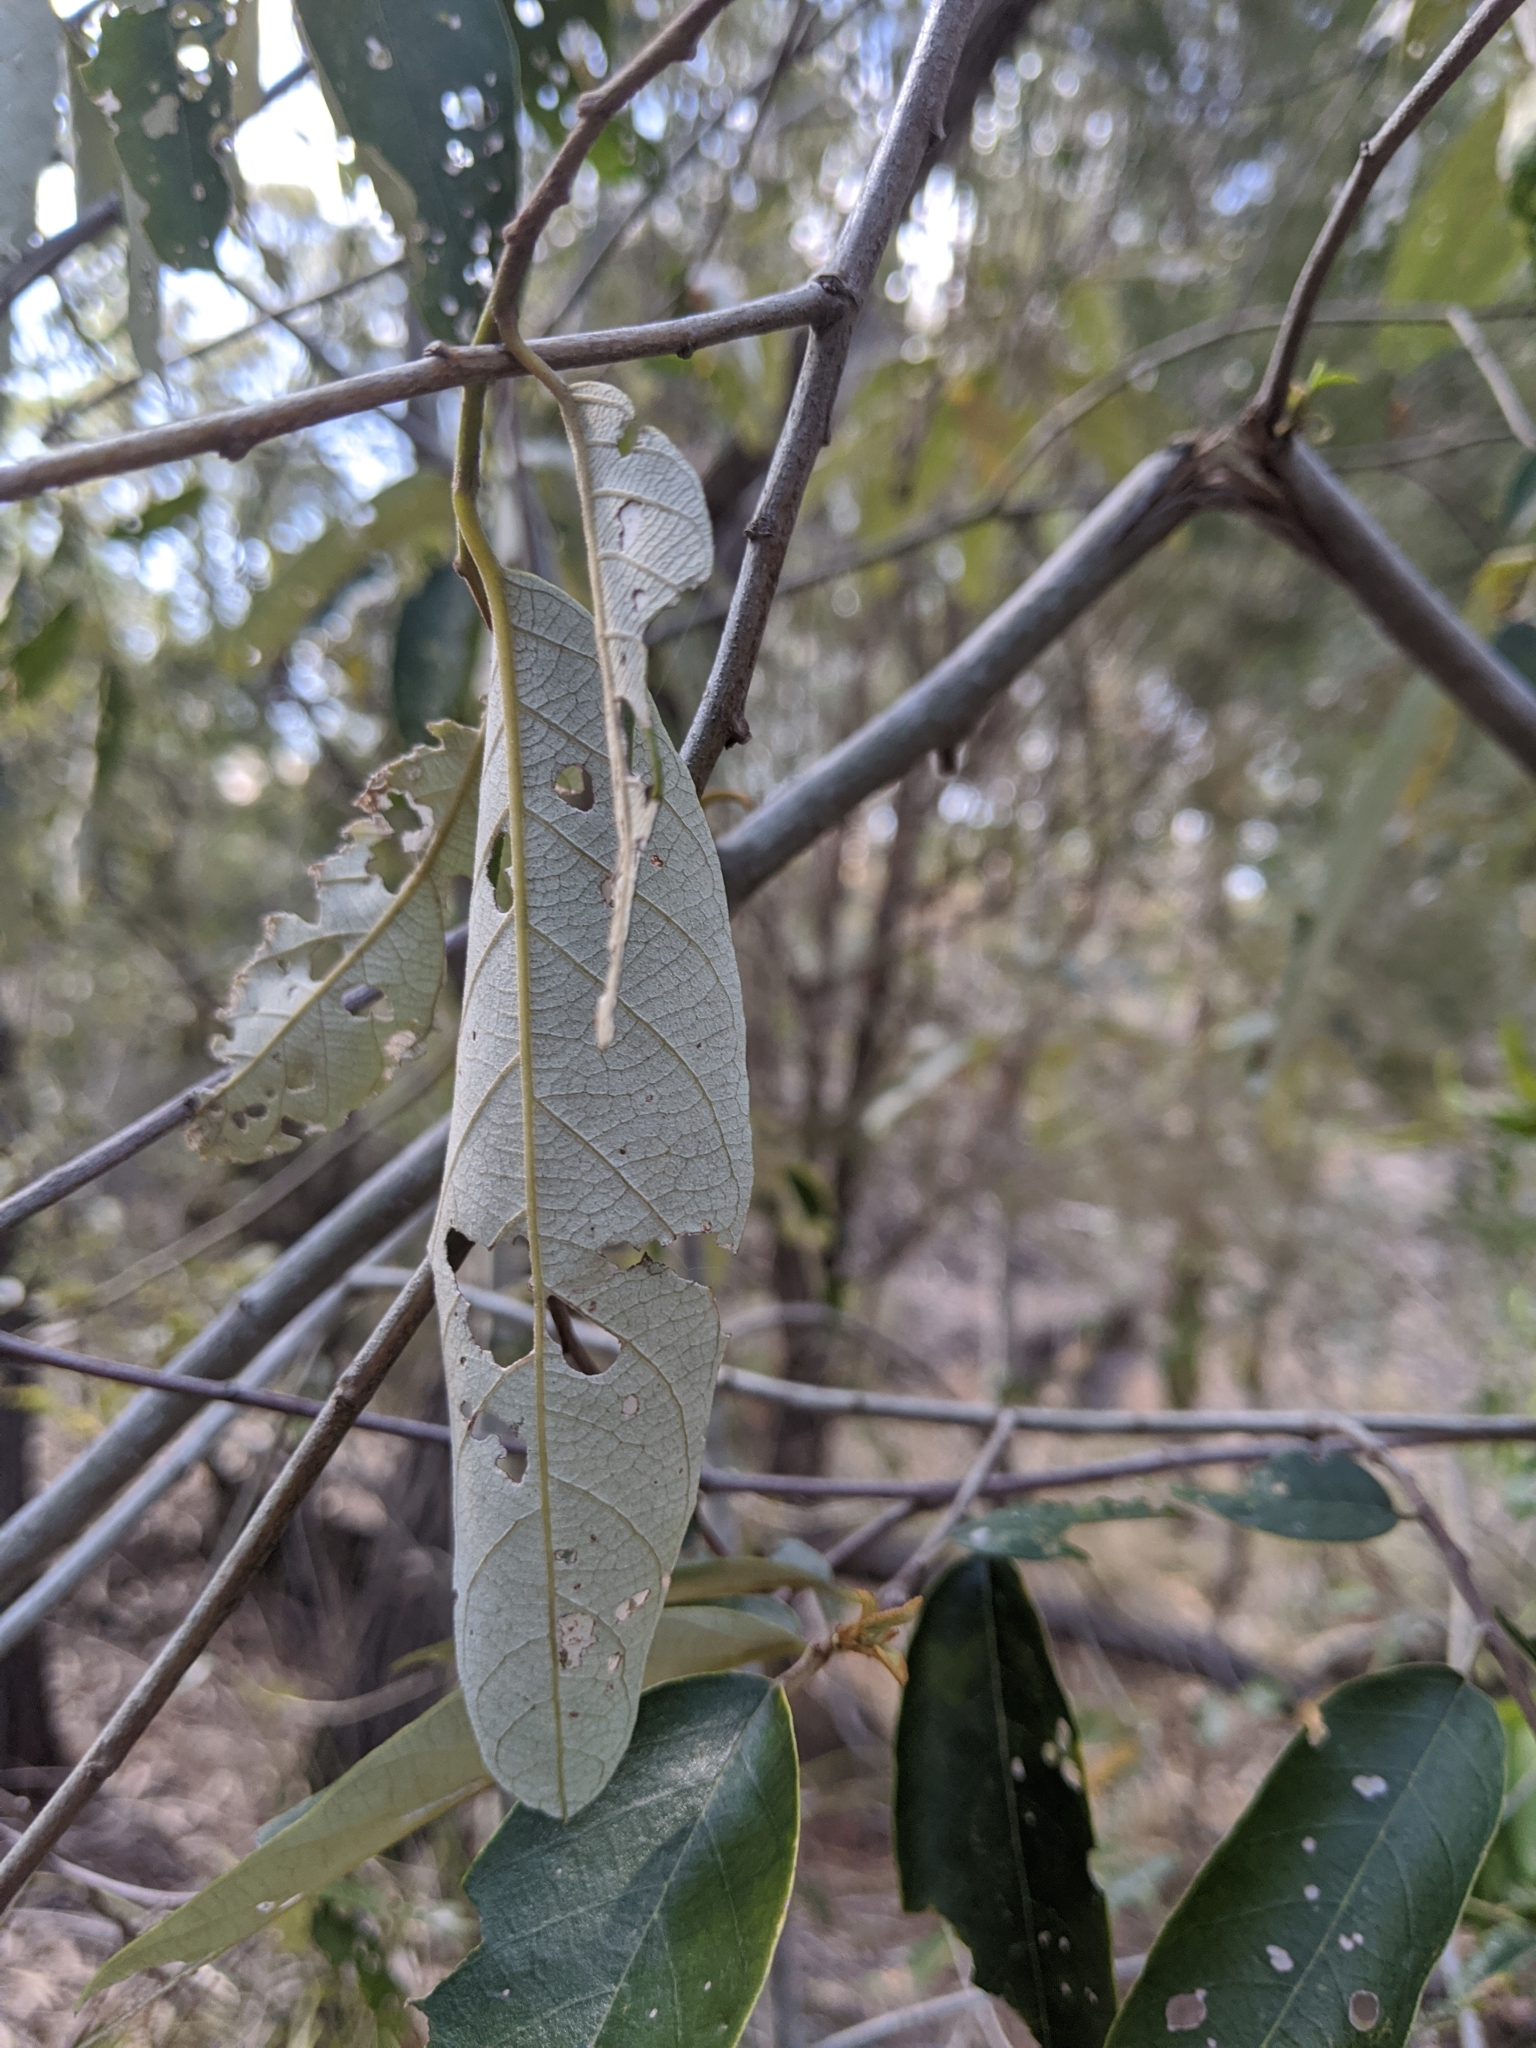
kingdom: Plantae
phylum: Tracheophyta
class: Magnoliopsida
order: Rosales
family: Rhamnaceae
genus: Alphitonia
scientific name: Alphitonia excelsa
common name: Red ash
